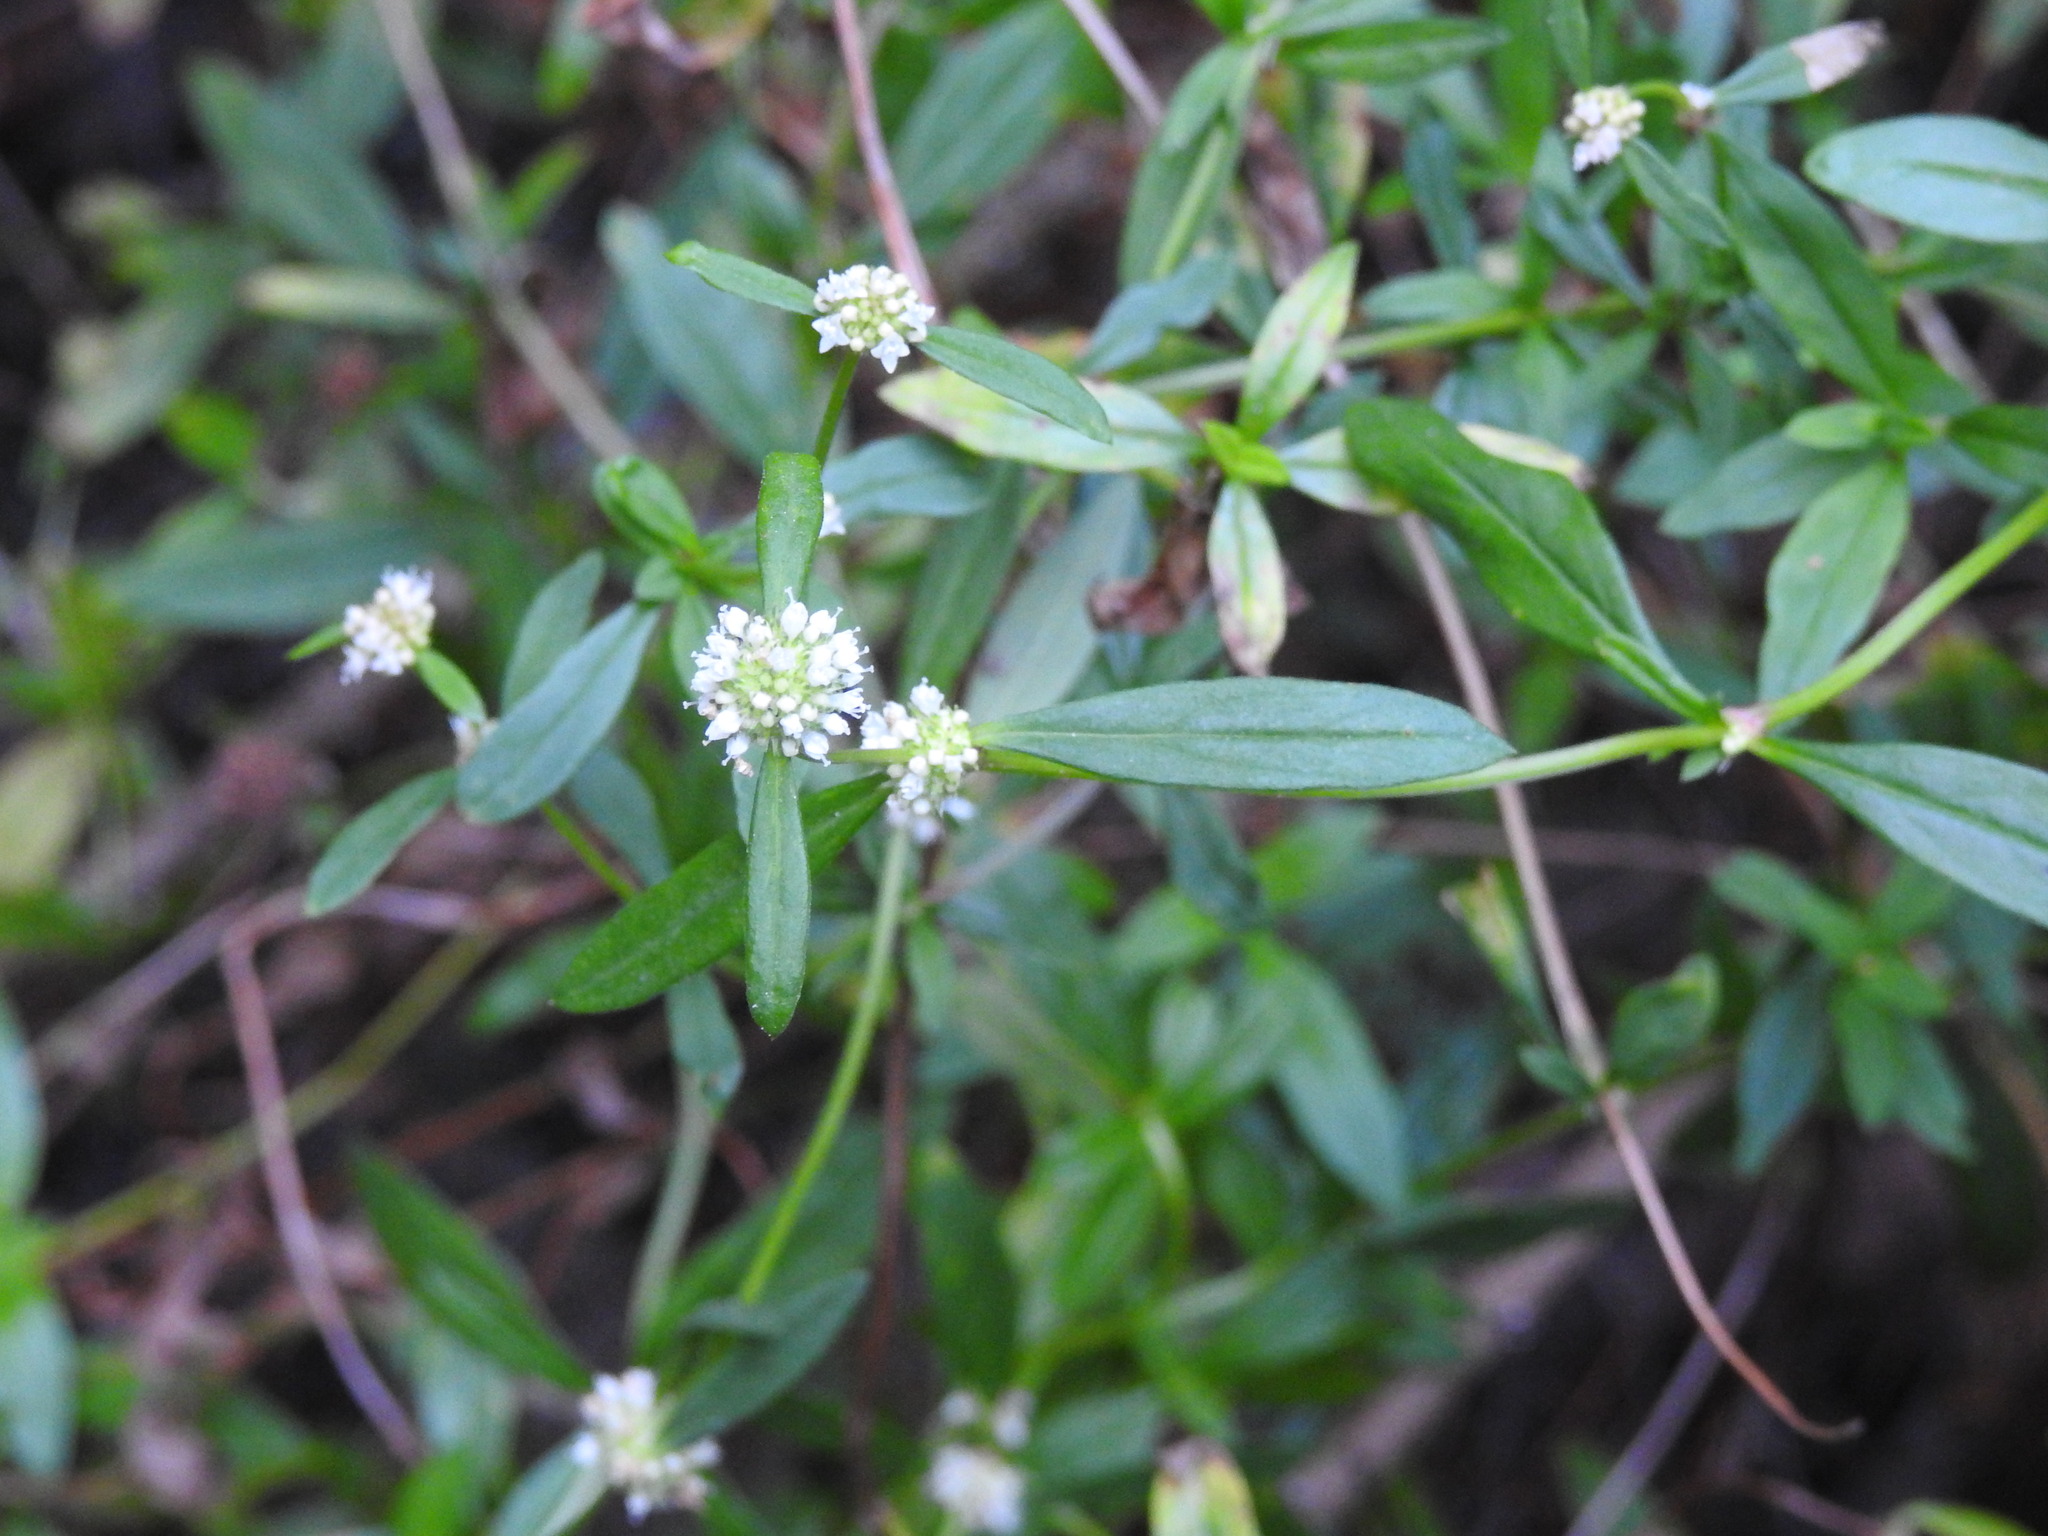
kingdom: Plantae
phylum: Tracheophyta
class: Magnoliopsida
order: Gentianales
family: Rubiaceae
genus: Spermacoce
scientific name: Spermacoce verticillata
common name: Shrubby false buttonweed
